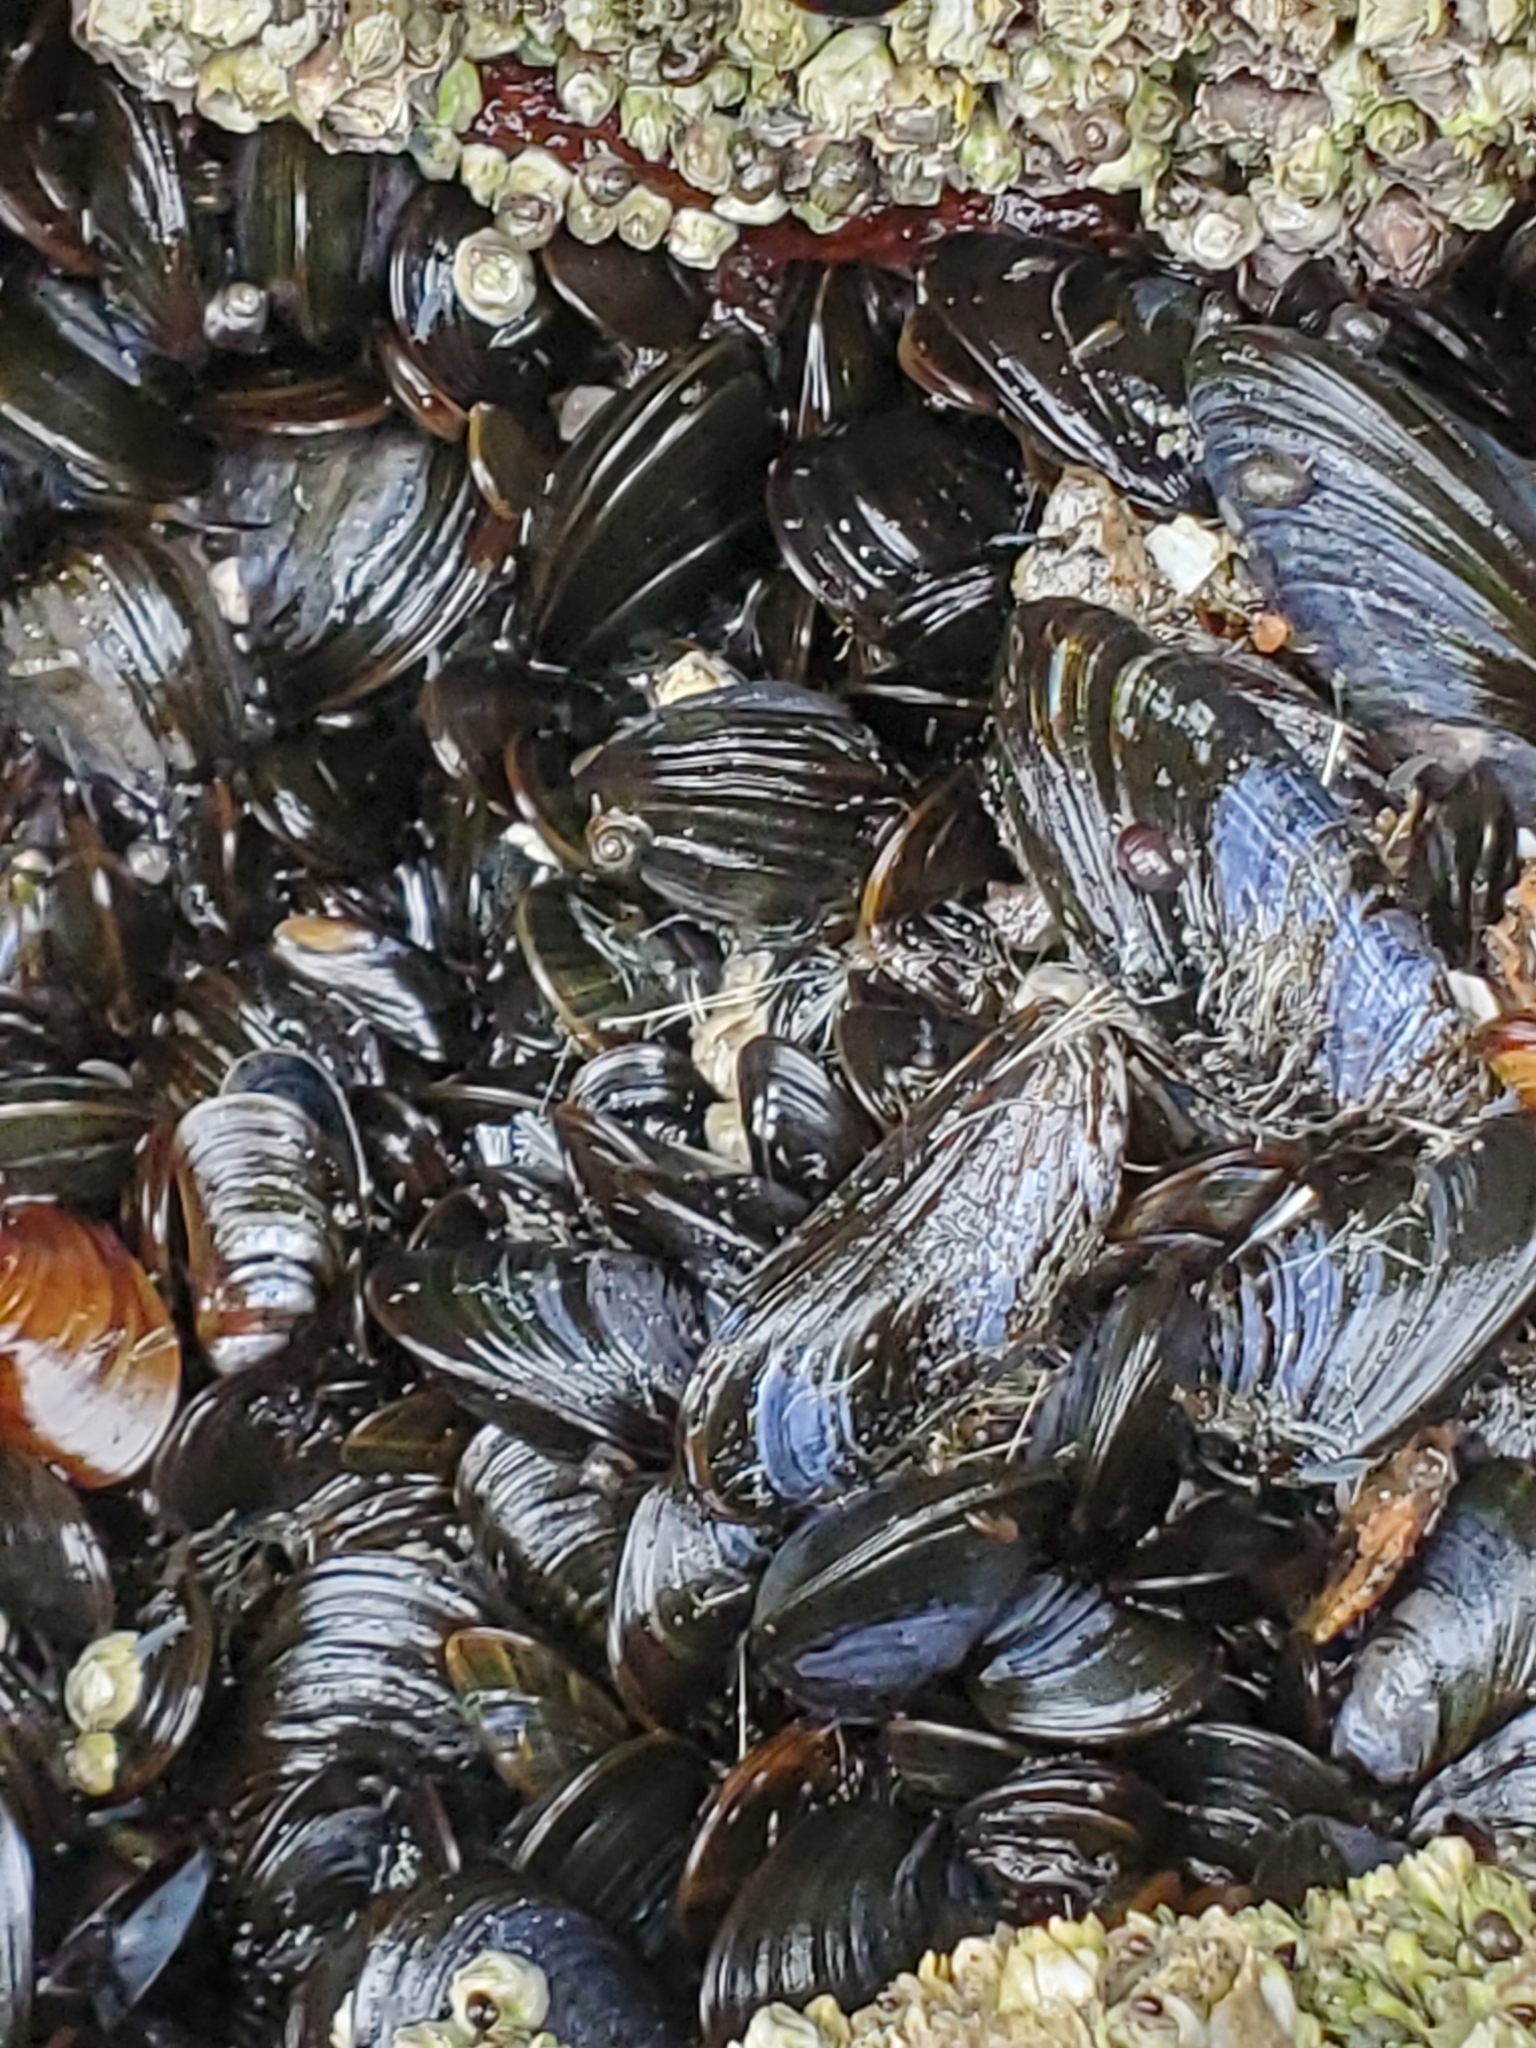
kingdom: Animalia
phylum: Mollusca
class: Bivalvia
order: Mytilida
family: Mytilidae
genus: Mytilus
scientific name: Mytilus edulis
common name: Blue mussel
